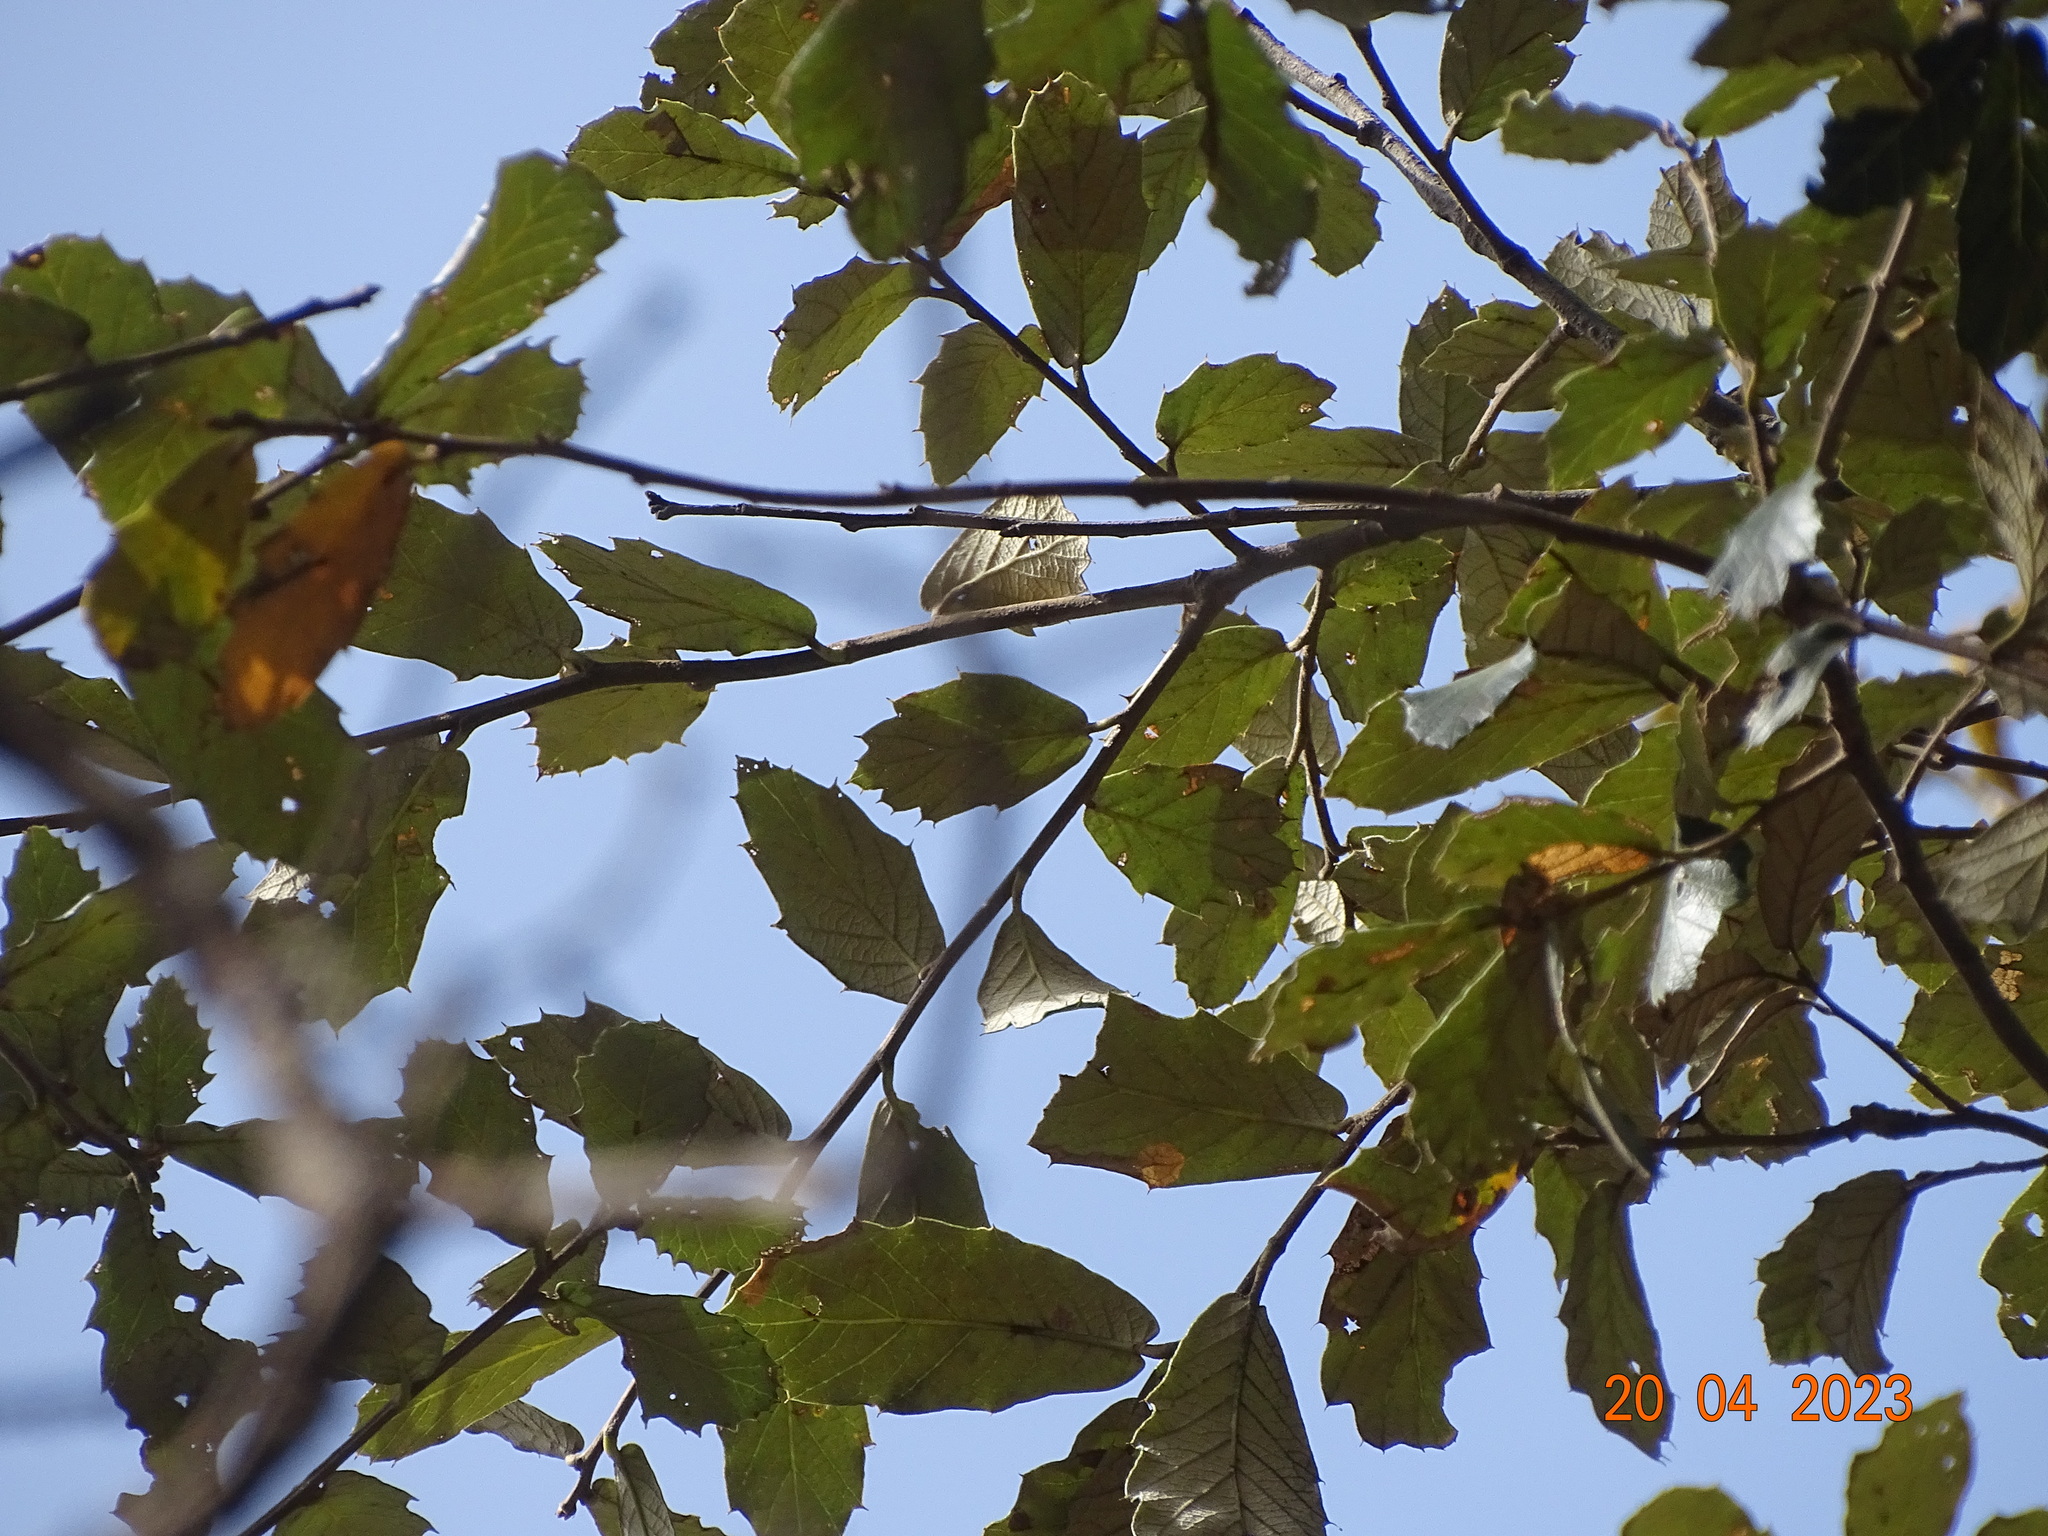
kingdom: Plantae
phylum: Tracheophyta
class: Magnoliopsida
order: Fagales
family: Fagaceae
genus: Quercus
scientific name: Quercus sideroxyla
